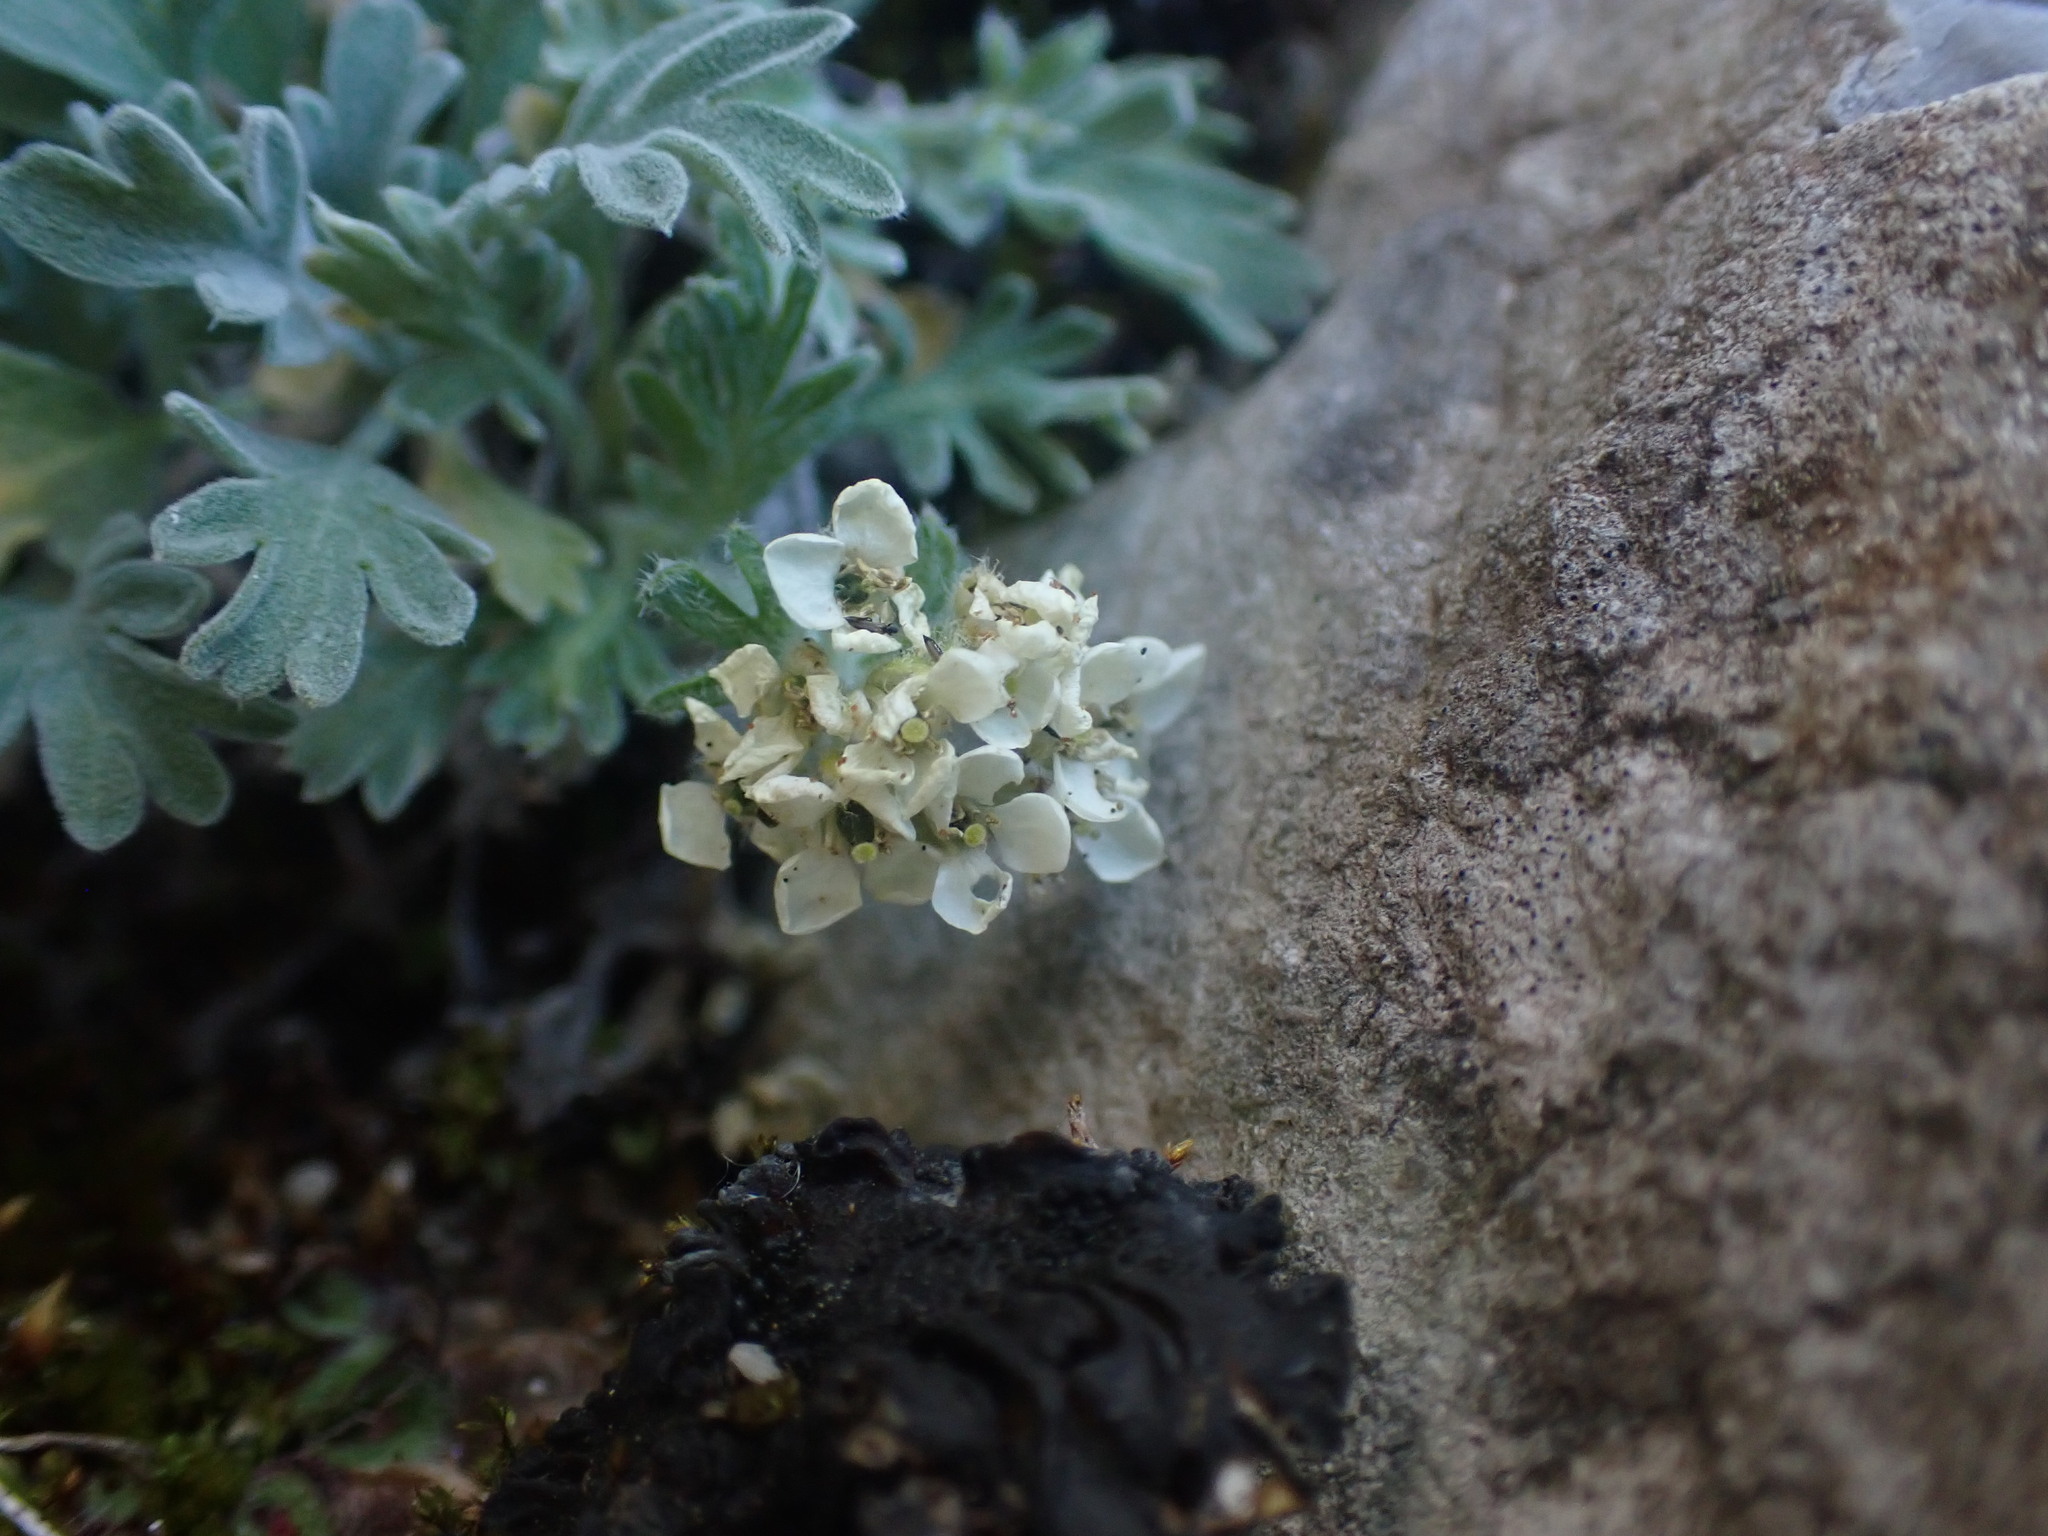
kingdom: Plantae
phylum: Tracheophyta
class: Magnoliopsida
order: Brassicales
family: Brassicaceae
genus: Smelowskia
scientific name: Smelowskia americana
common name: American false candytuft
